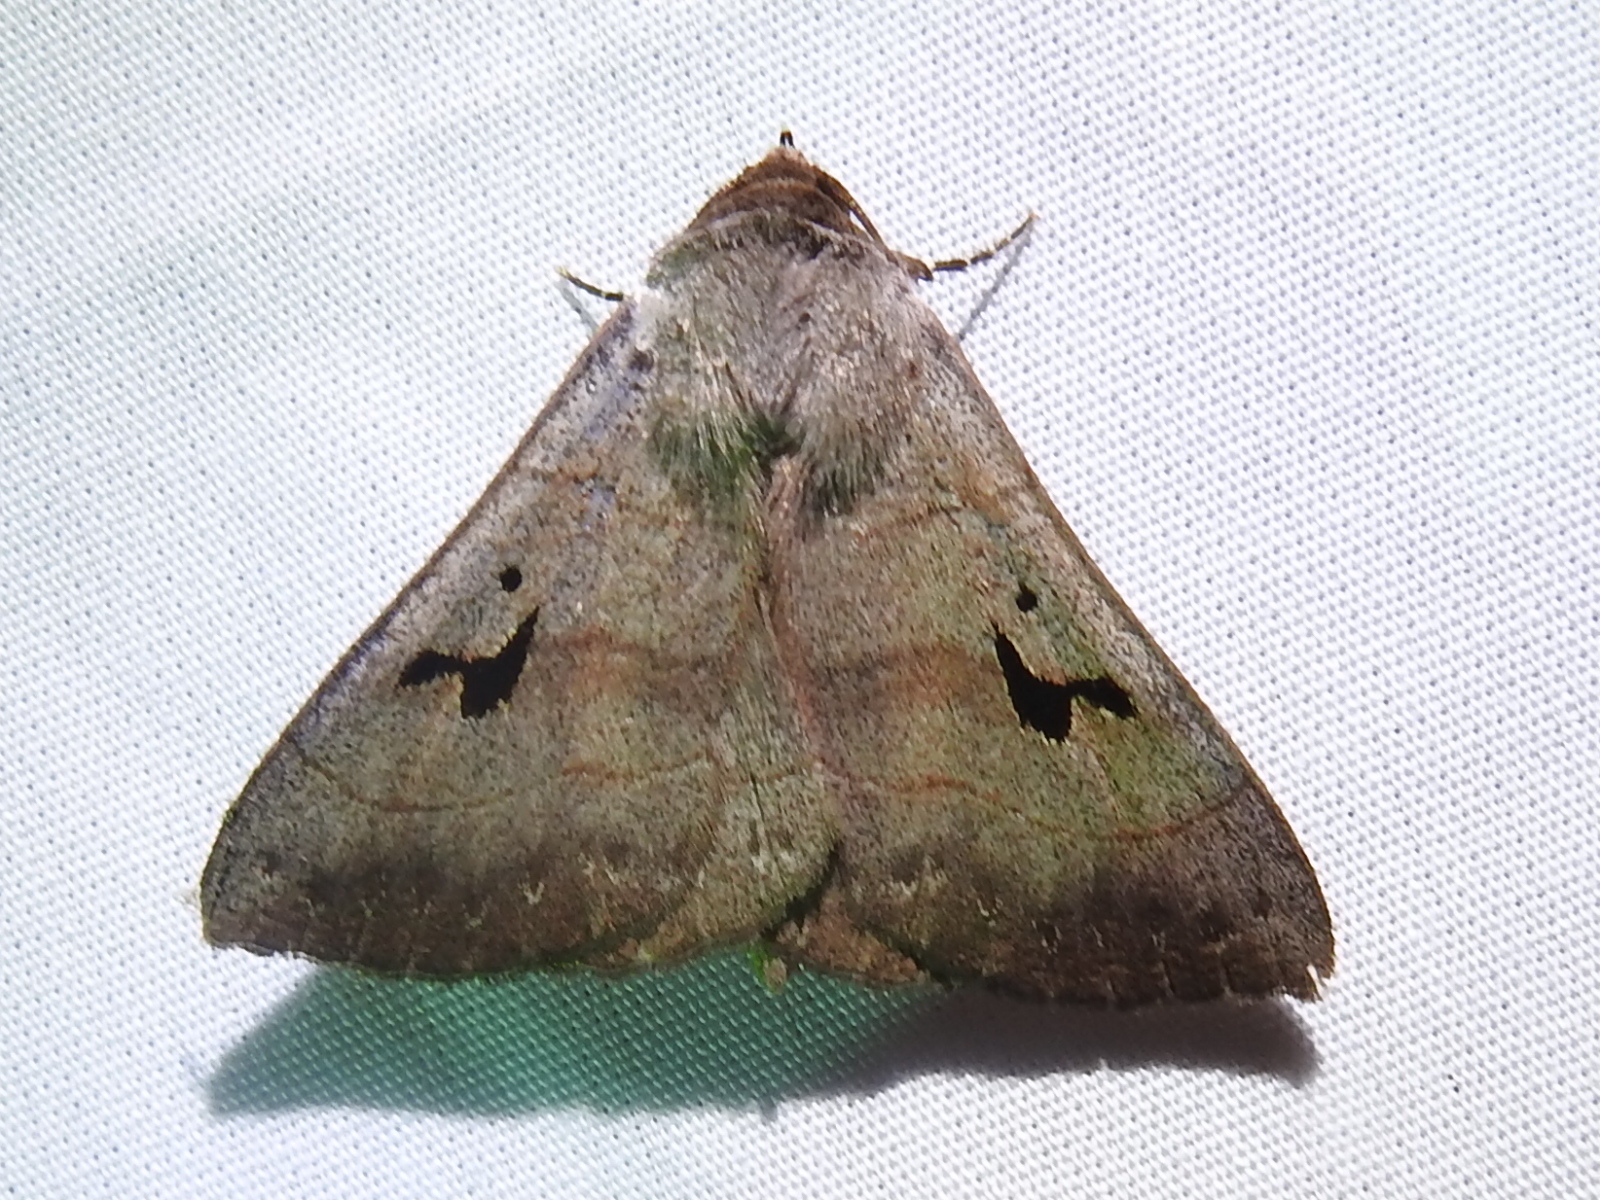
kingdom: Animalia
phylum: Arthropoda
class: Insecta
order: Lepidoptera
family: Erebidae
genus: Panopoda
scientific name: Panopoda carneicosta
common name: Brown panopoda moth
